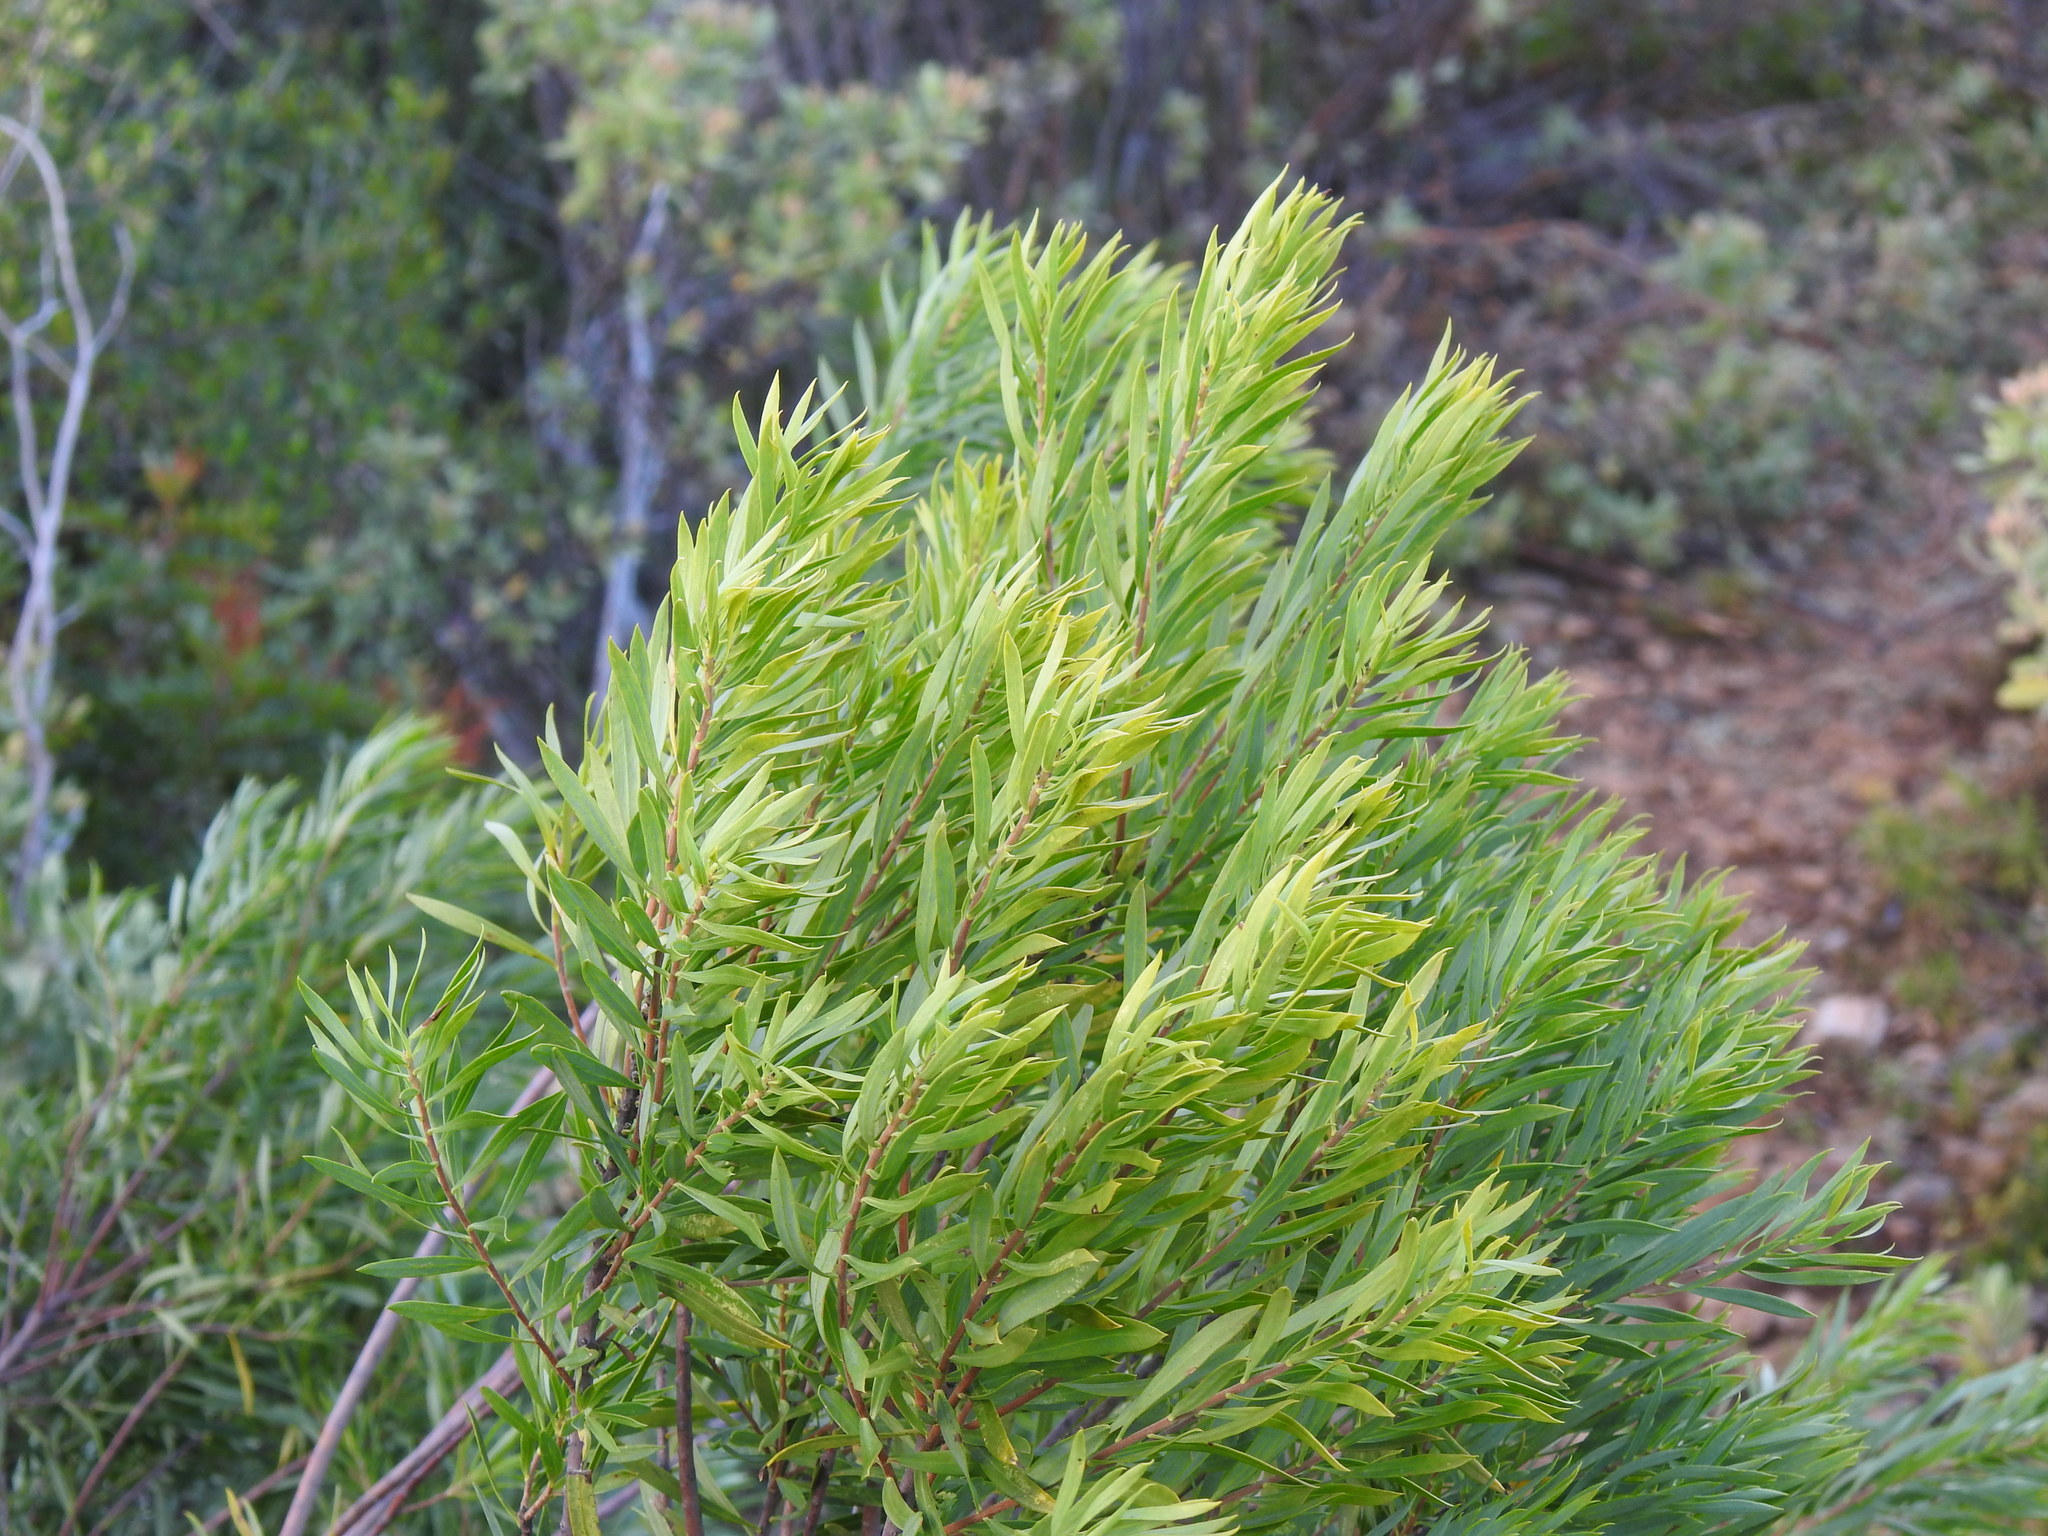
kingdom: Plantae
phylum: Tracheophyta
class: Magnoliopsida
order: Malvales
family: Thymelaeaceae
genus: Daphne
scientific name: Daphne gnidium
